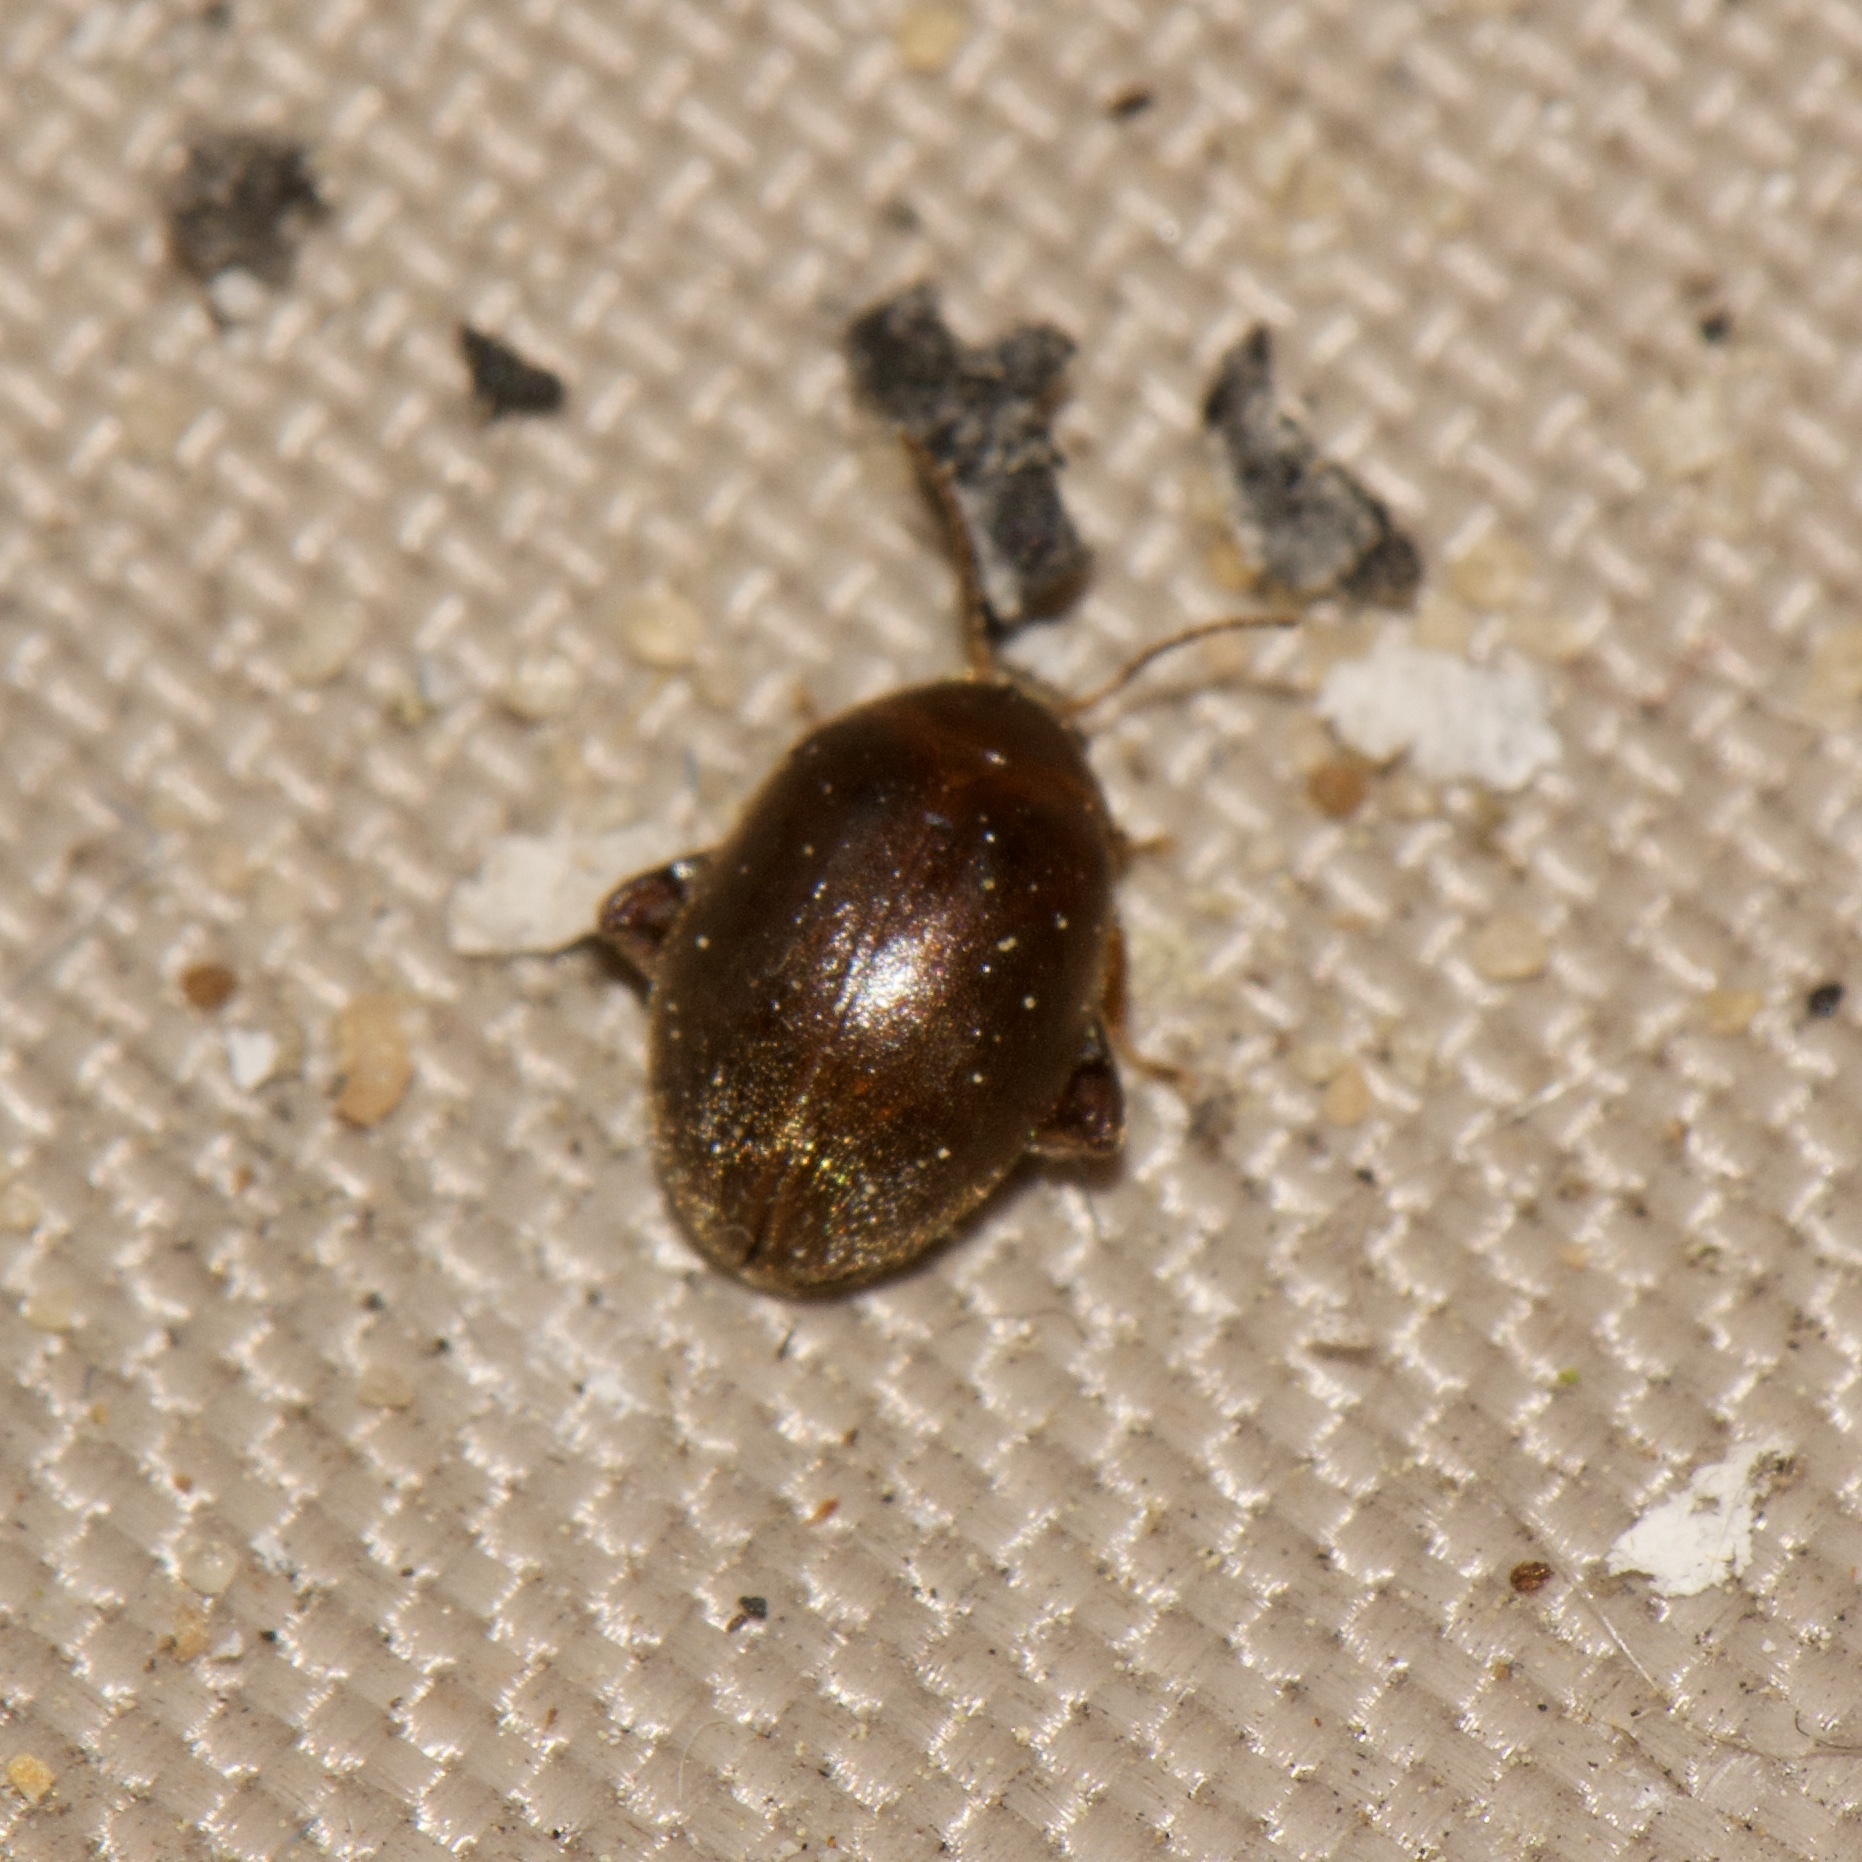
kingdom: Animalia
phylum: Arthropoda
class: Insecta
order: Coleoptera
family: Scirtidae
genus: Scirtes
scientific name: Scirtes tibialis
